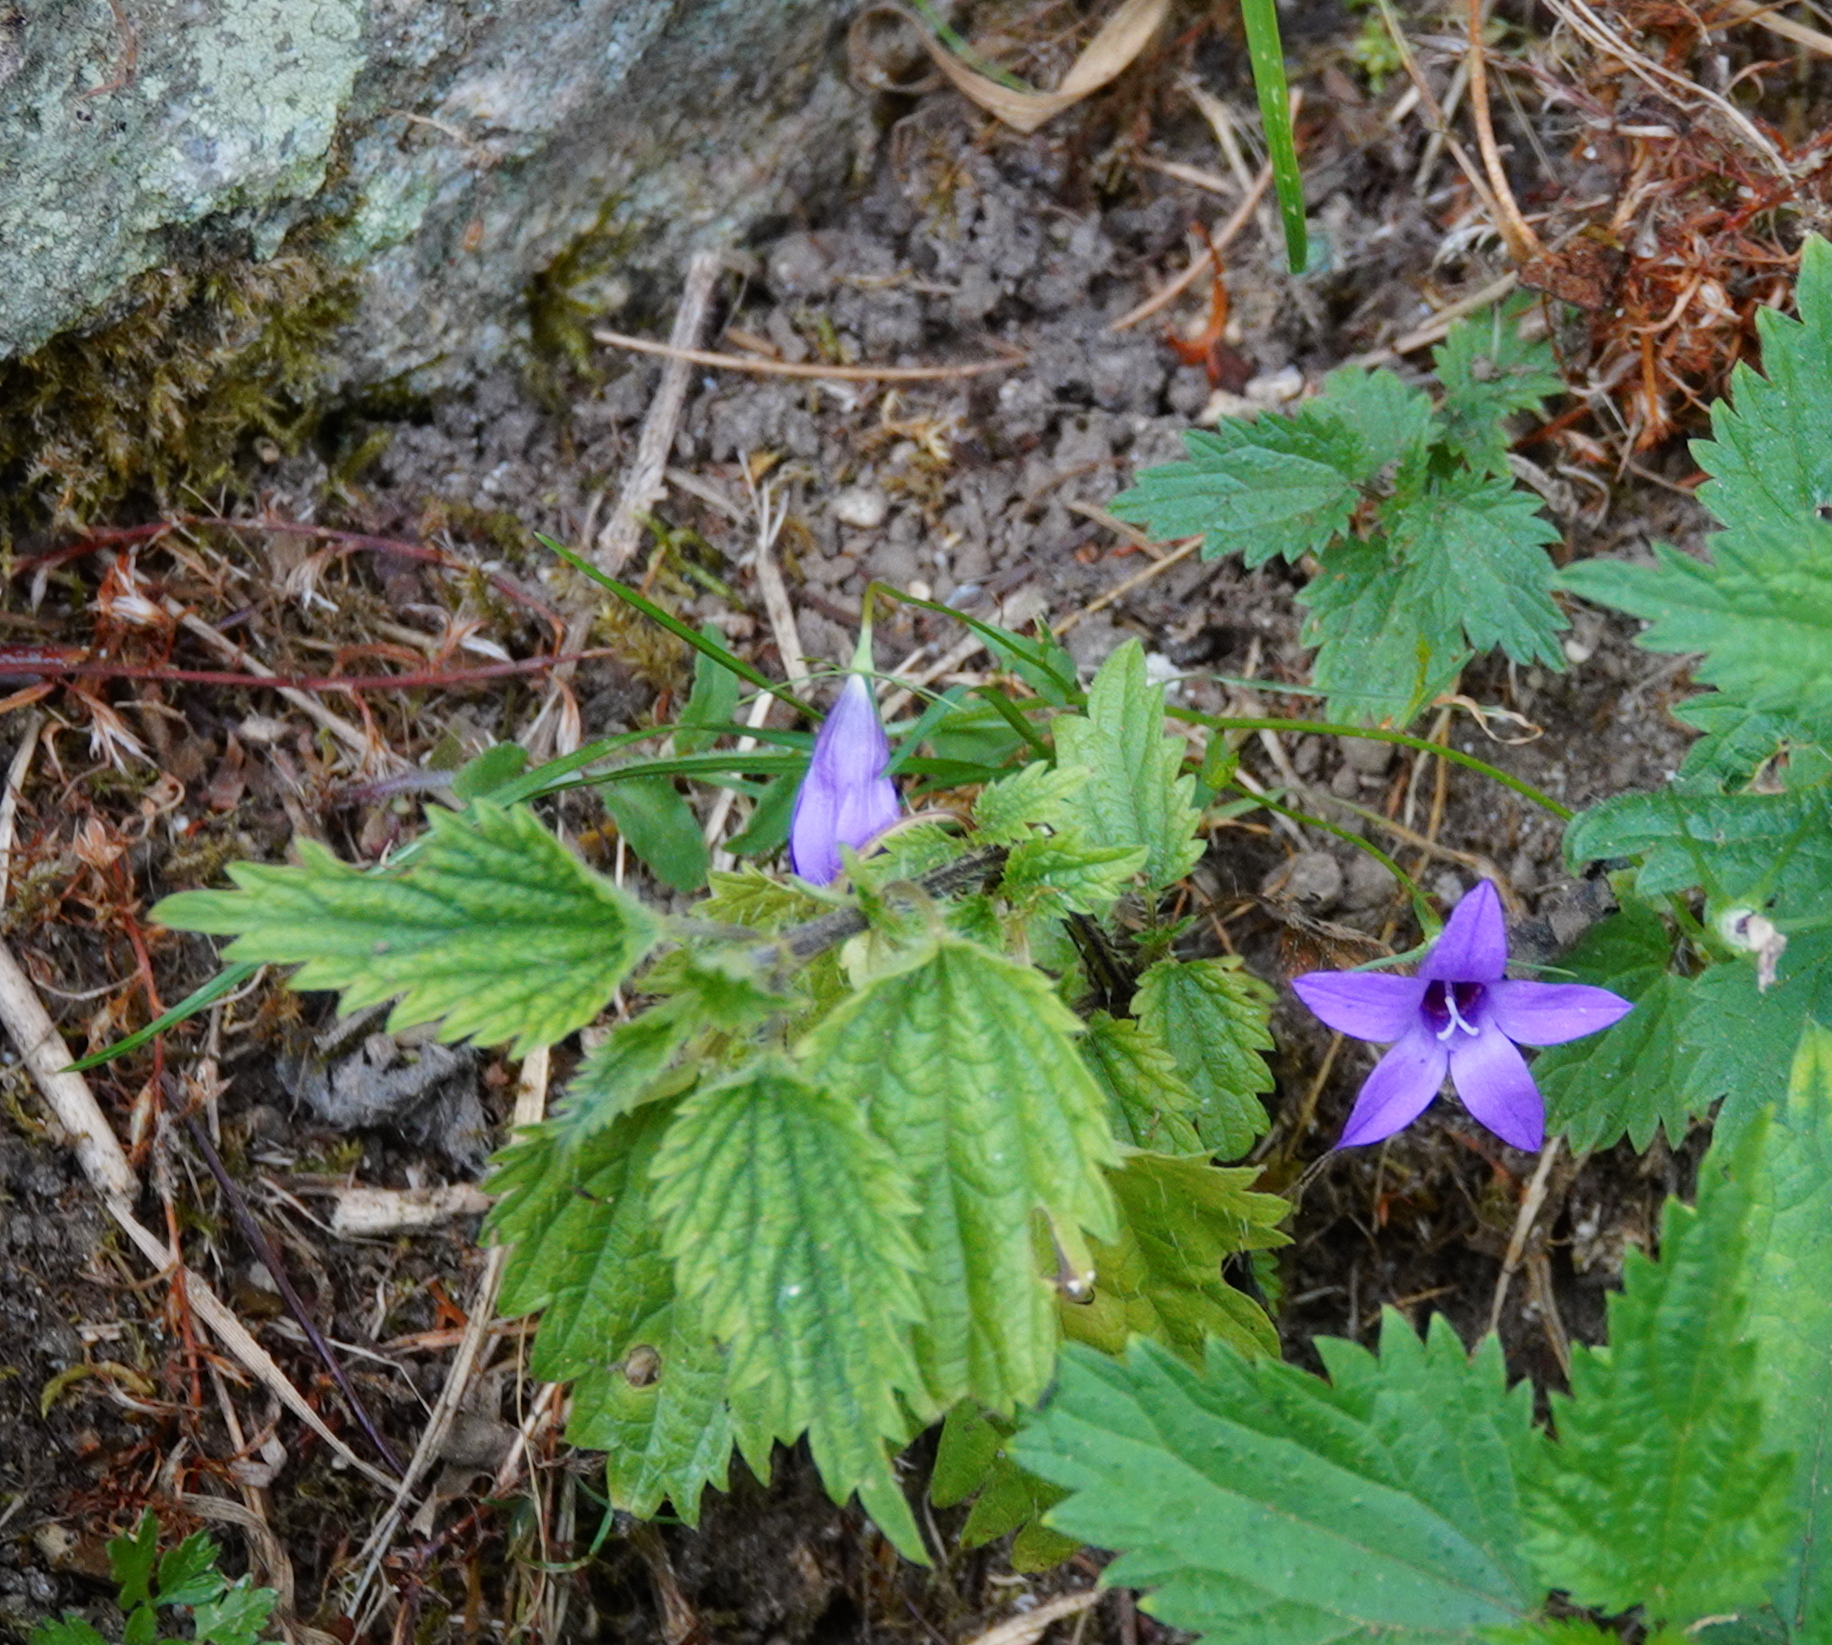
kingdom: Plantae
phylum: Tracheophyta
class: Magnoliopsida
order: Asterales
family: Campanulaceae
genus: Campanula
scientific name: Campanula lusitanica
